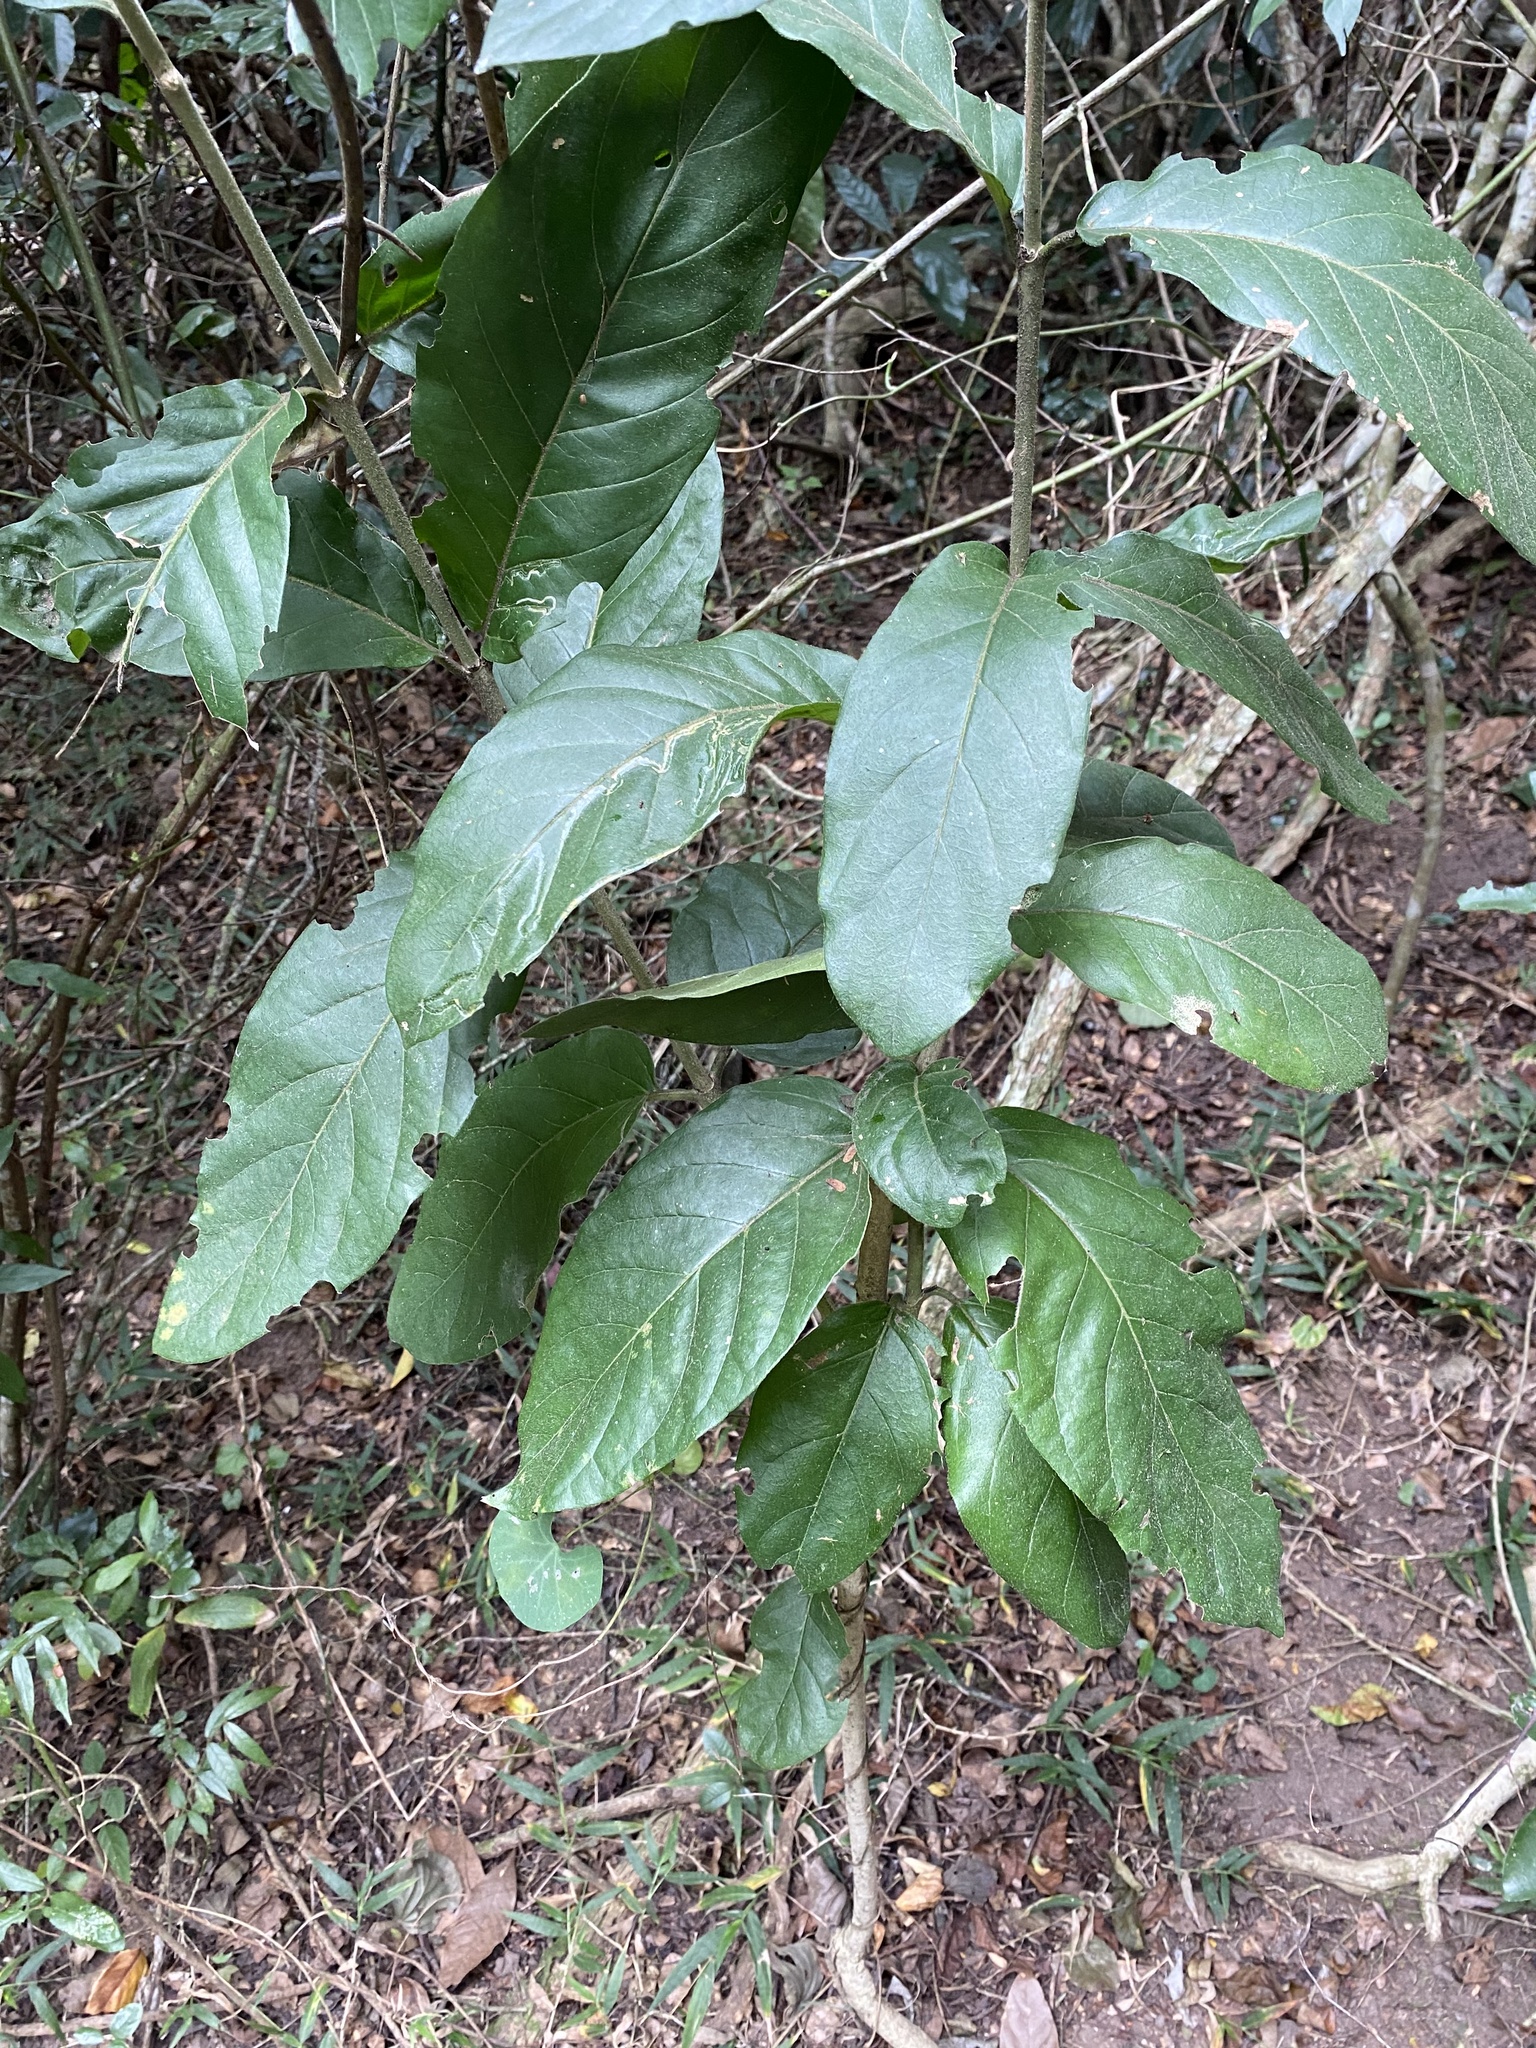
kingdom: Plantae
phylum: Tracheophyta
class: Magnoliopsida
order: Gentianales
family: Rubiaceae
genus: Burchellia
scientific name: Burchellia bubalina
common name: Wild pomegranate
